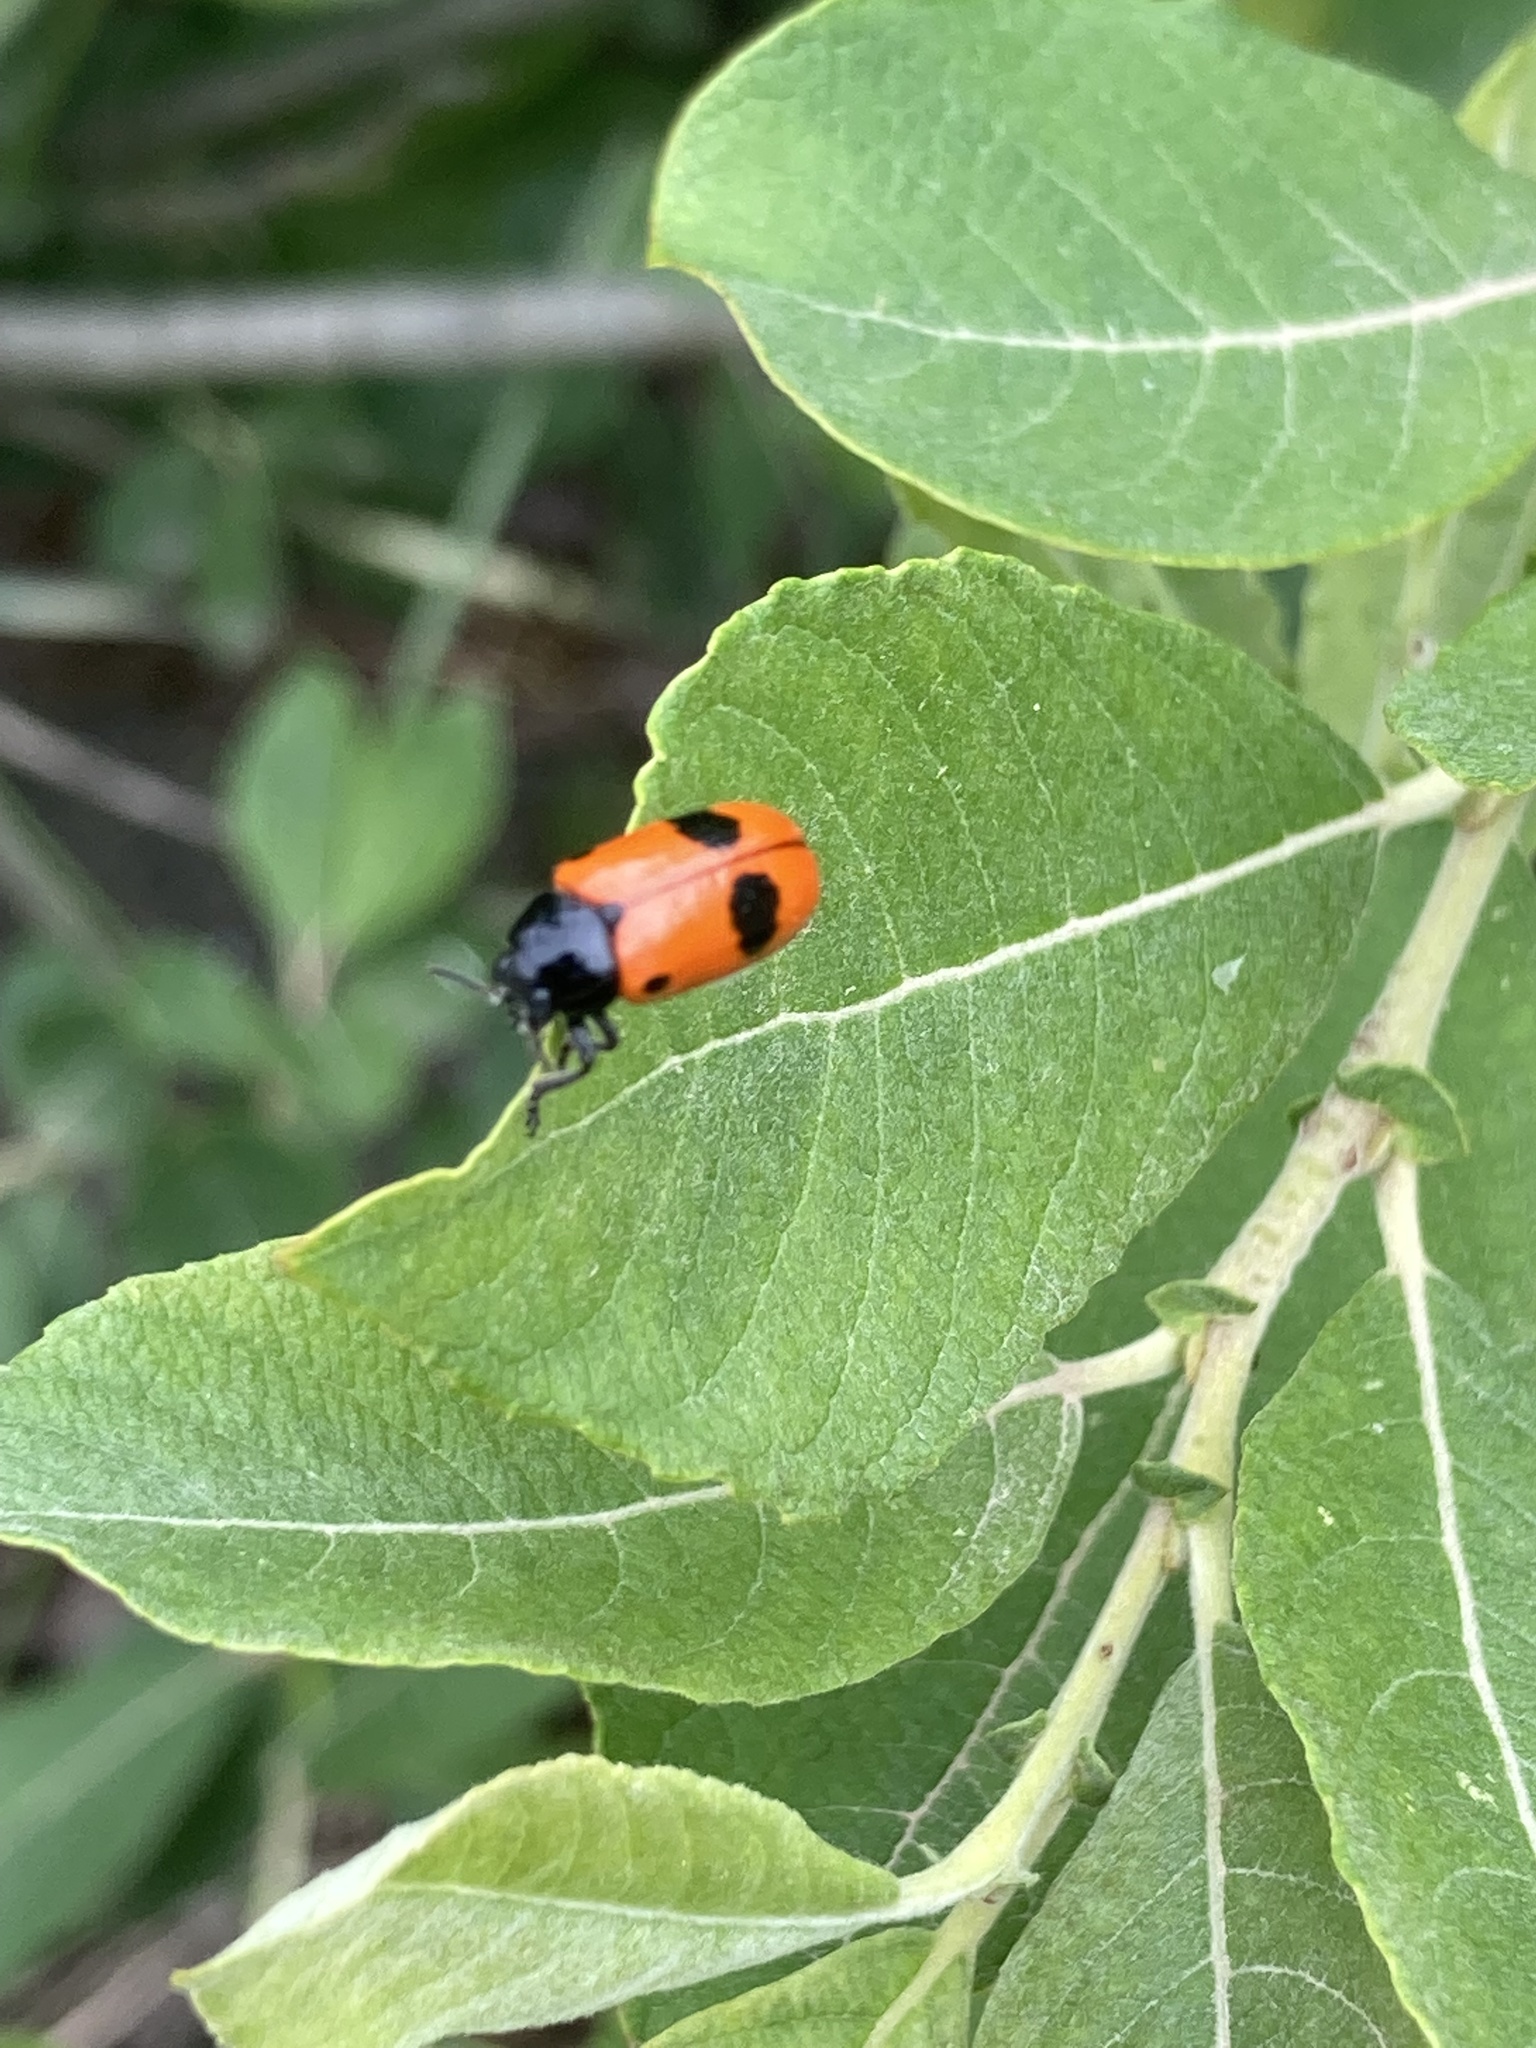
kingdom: Animalia
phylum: Arthropoda
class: Insecta
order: Coleoptera
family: Chrysomelidae
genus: Clytra
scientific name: Clytra laeviuscula
